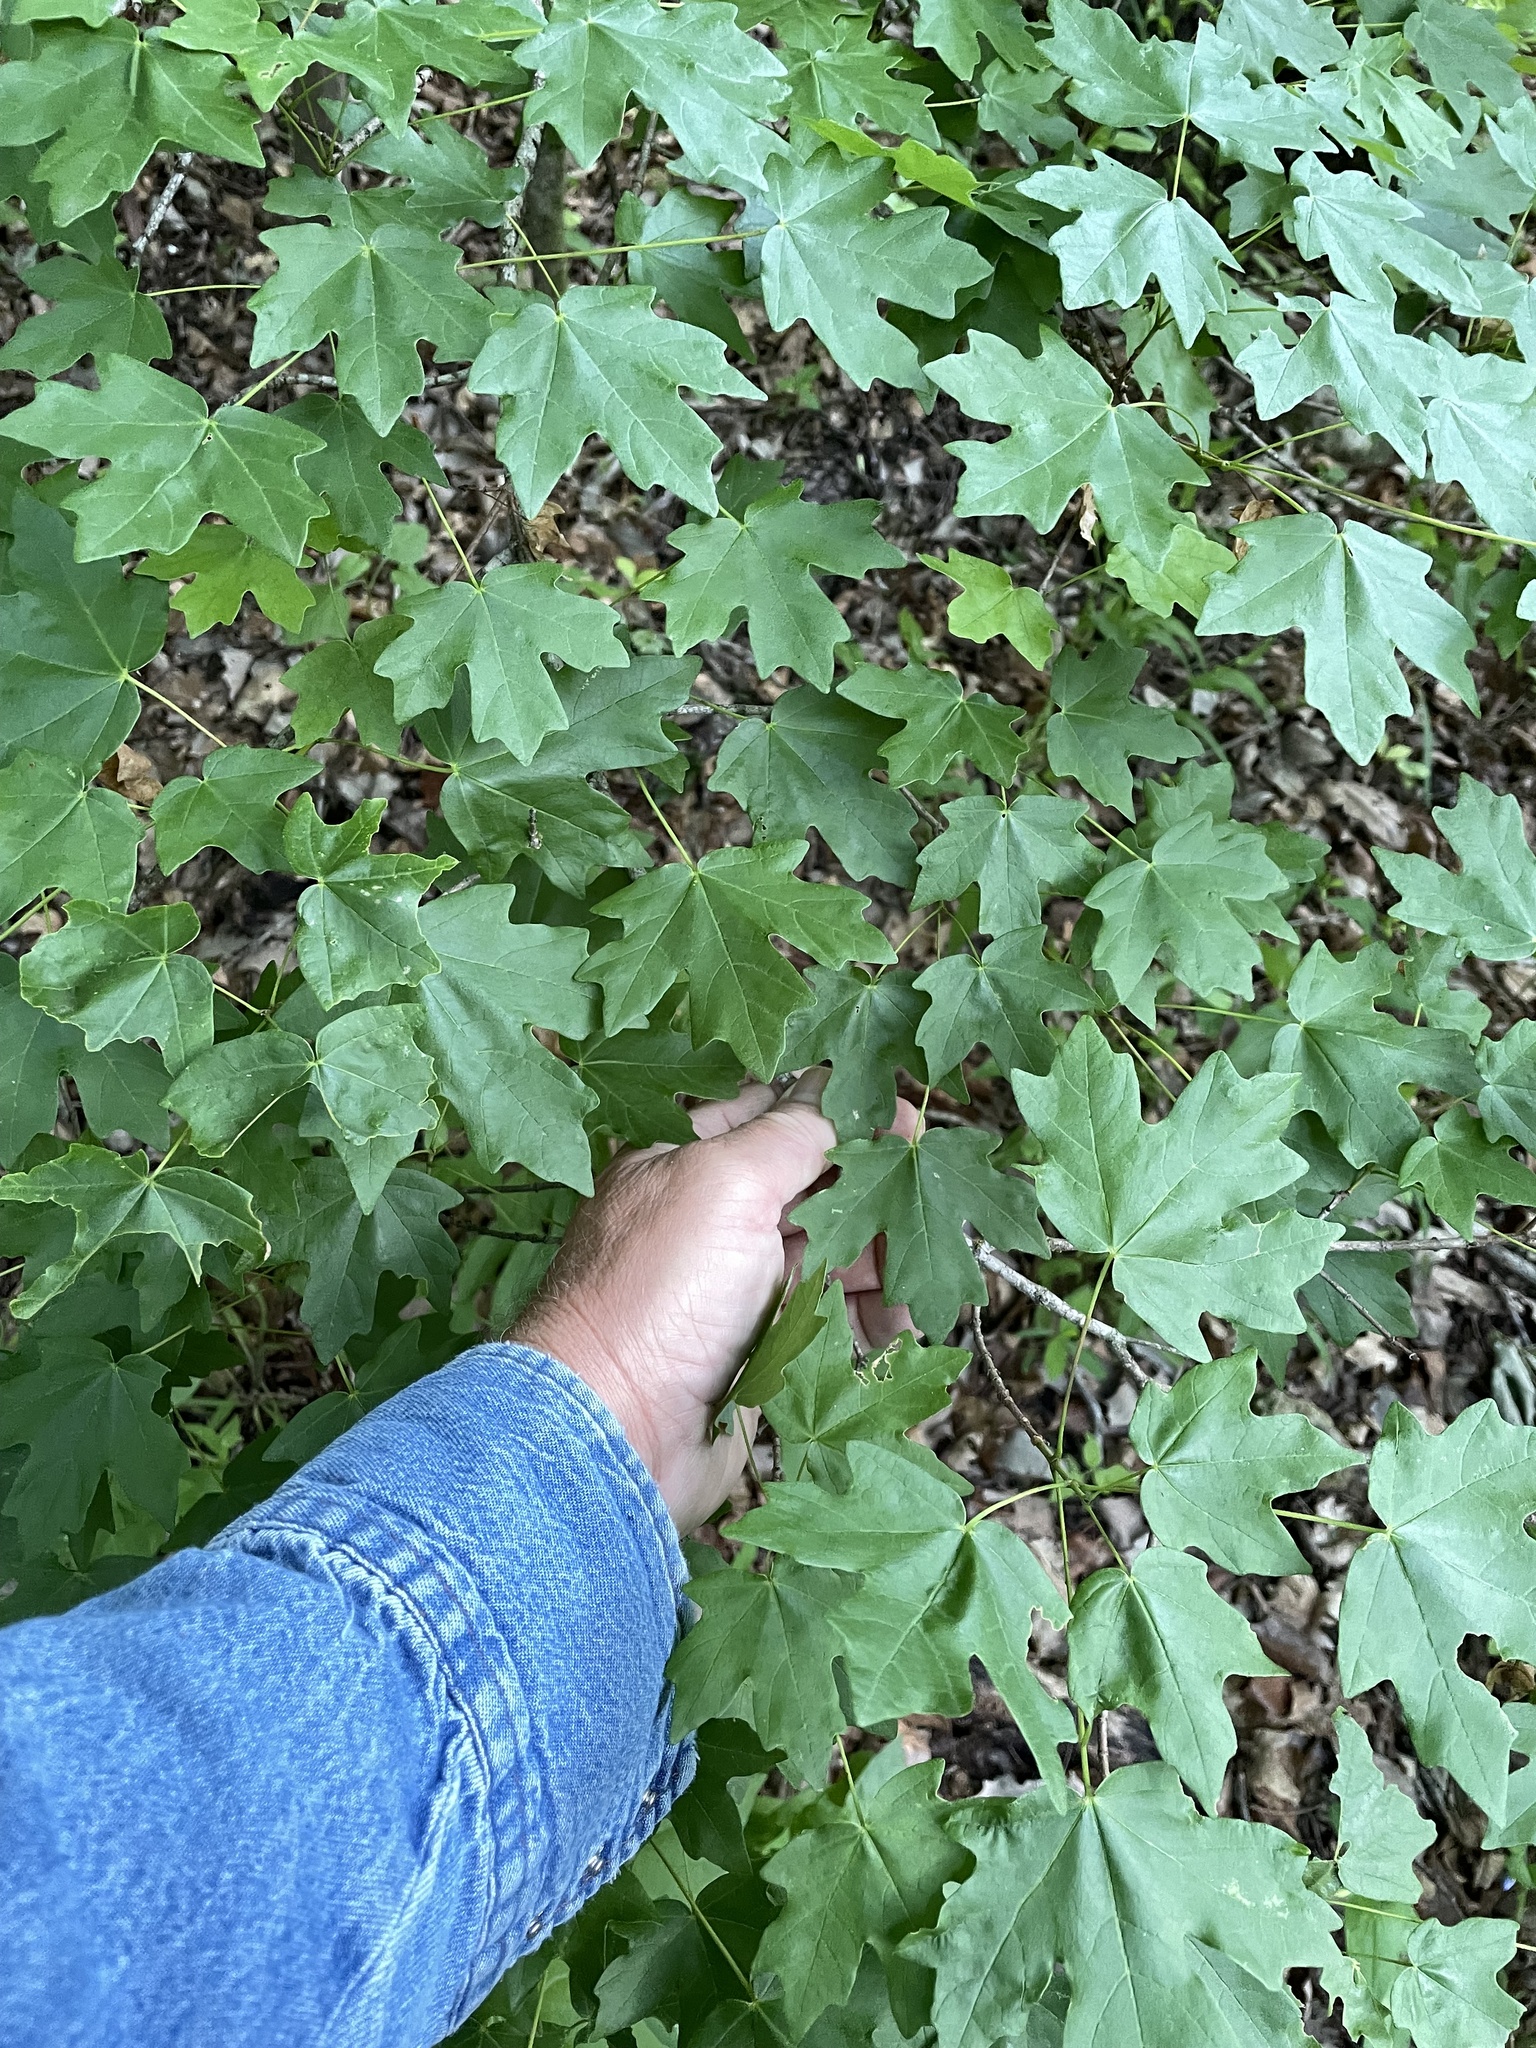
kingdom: Plantae
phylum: Tracheophyta
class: Magnoliopsida
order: Sapindales
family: Sapindaceae
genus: Acer
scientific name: Acer grandidentatum
